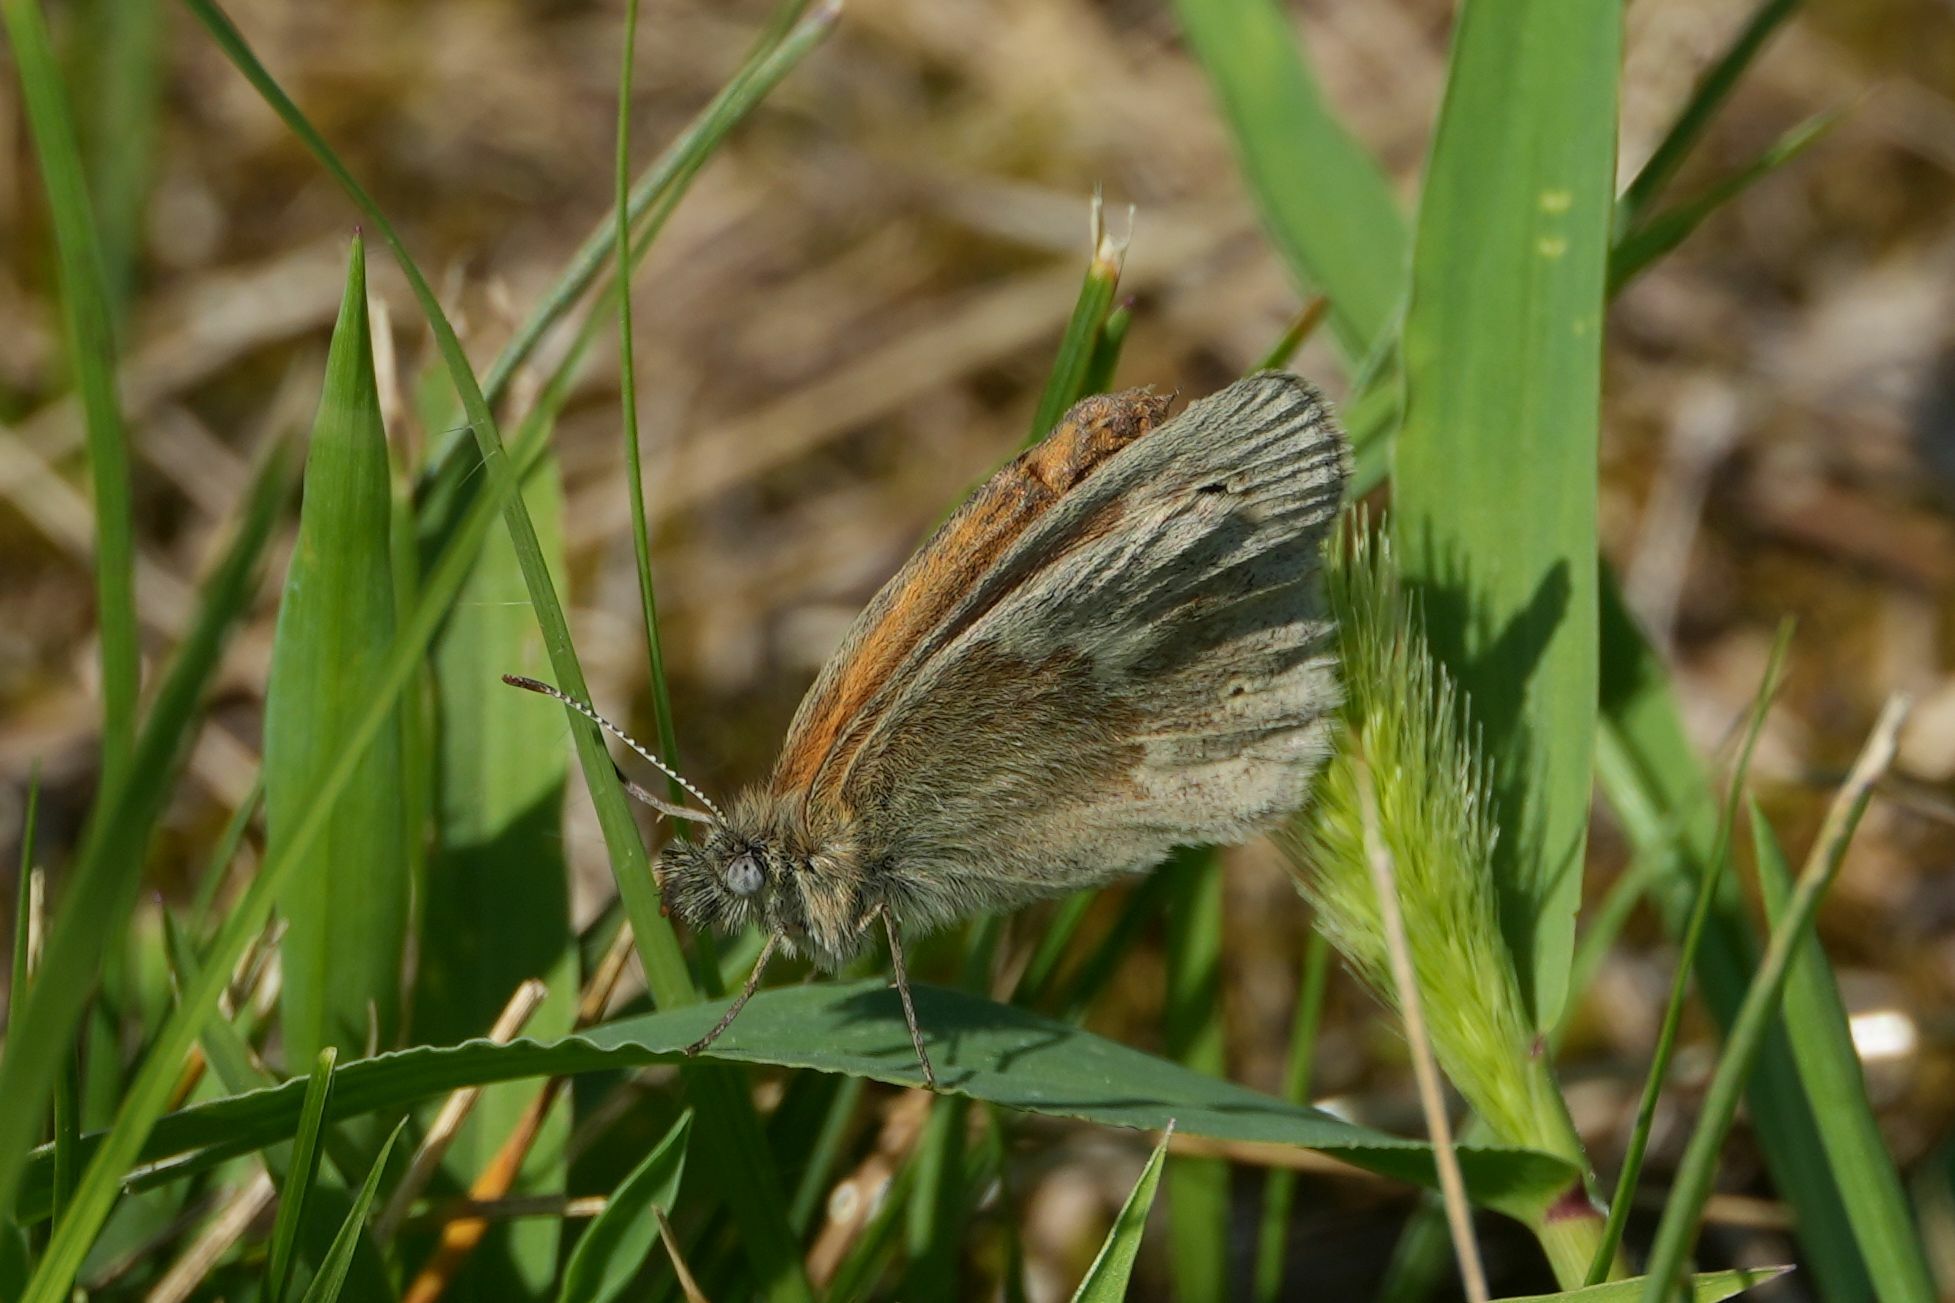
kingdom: Animalia
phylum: Arthropoda
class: Insecta
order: Lepidoptera
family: Nymphalidae
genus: Coenonympha
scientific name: Coenonympha california
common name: Common ringlet
